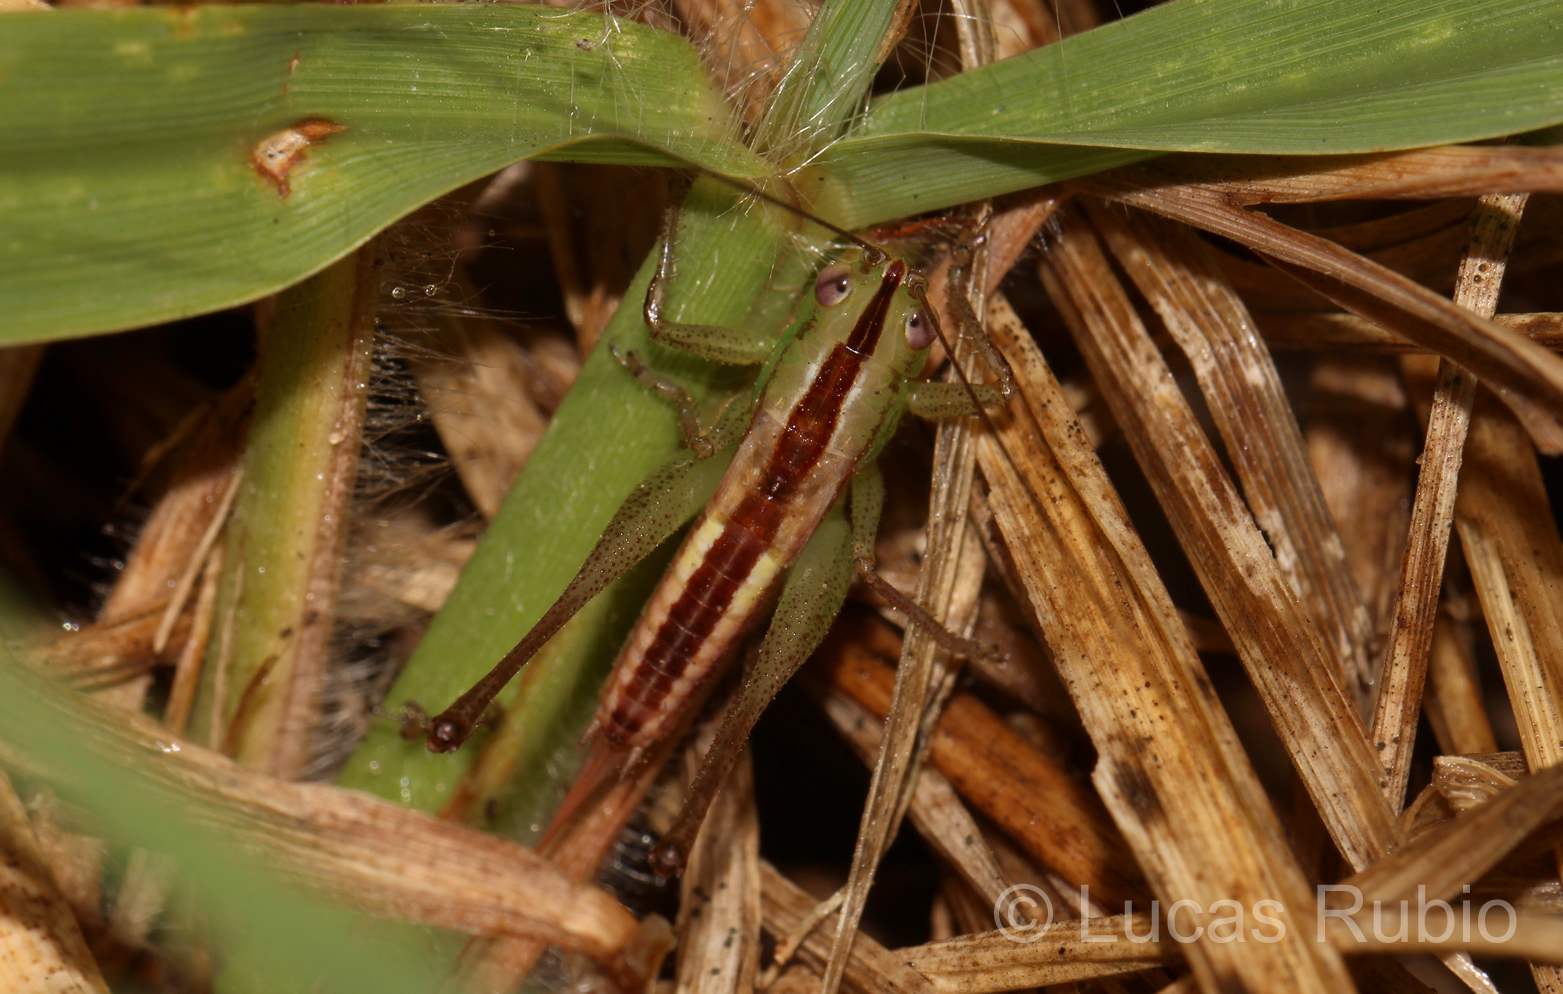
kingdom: Animalia
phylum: Arthropoda
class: Insecta
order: Orthoptera
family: Tettigoniidae
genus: Conocephalus
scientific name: Conocephalus doryphorus
